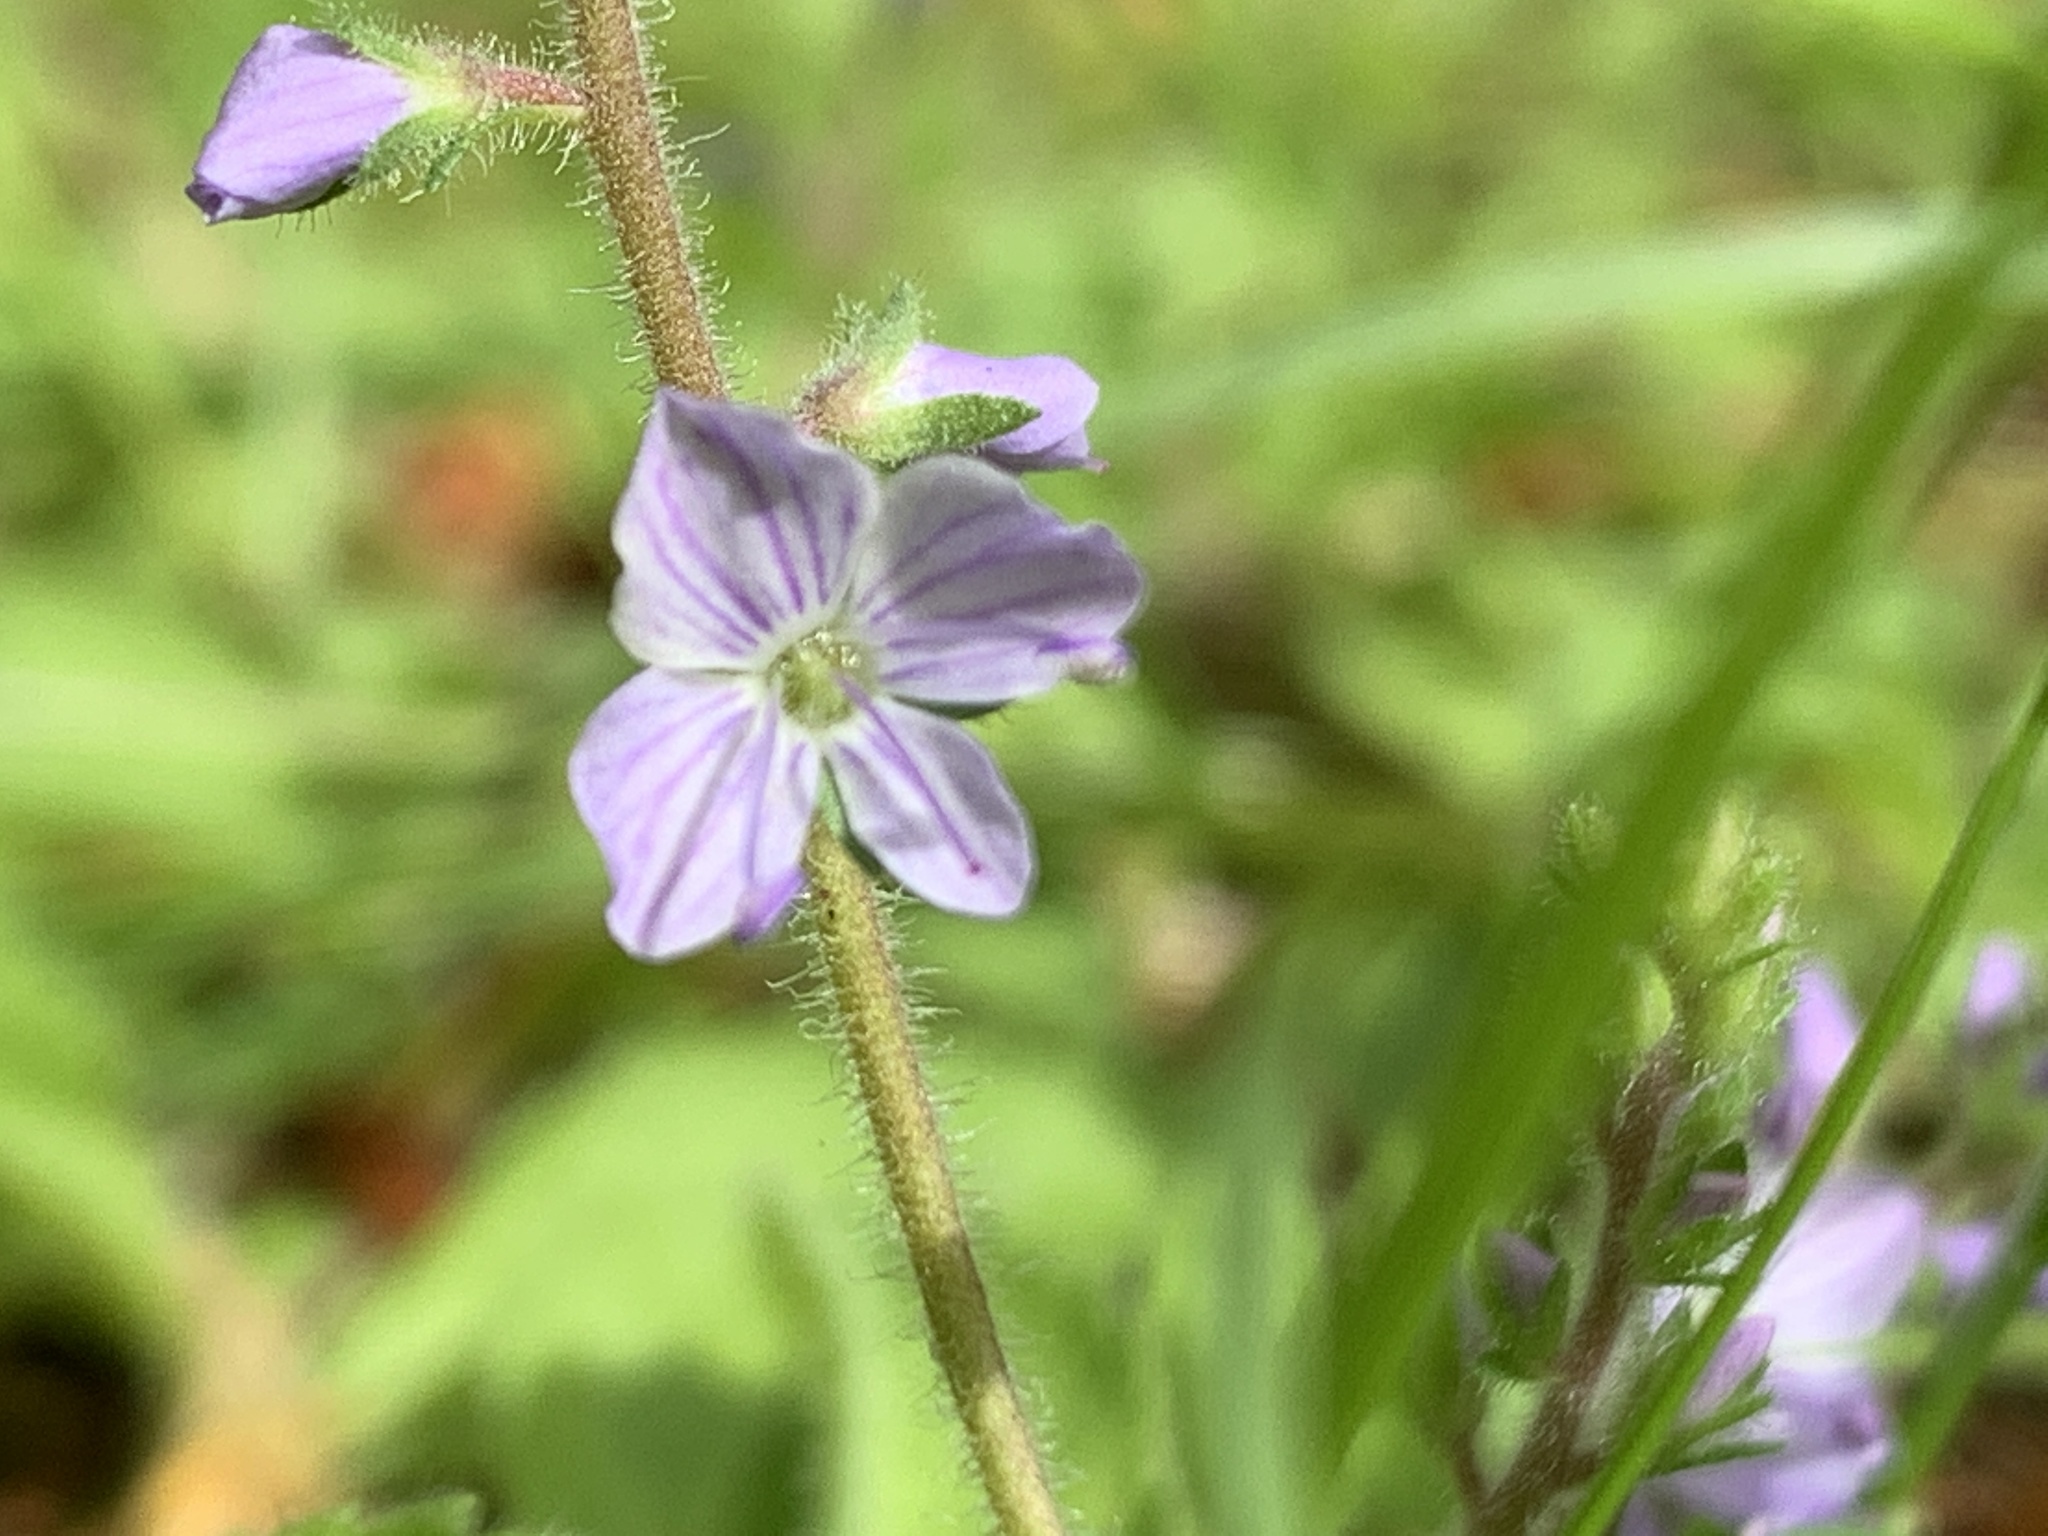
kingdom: Plantae
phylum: Tracheophyta
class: Magnoliopsida
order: Lamiales
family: Plantaginaceae
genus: Veronica
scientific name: Veronica officinalis
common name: Common speedwell
